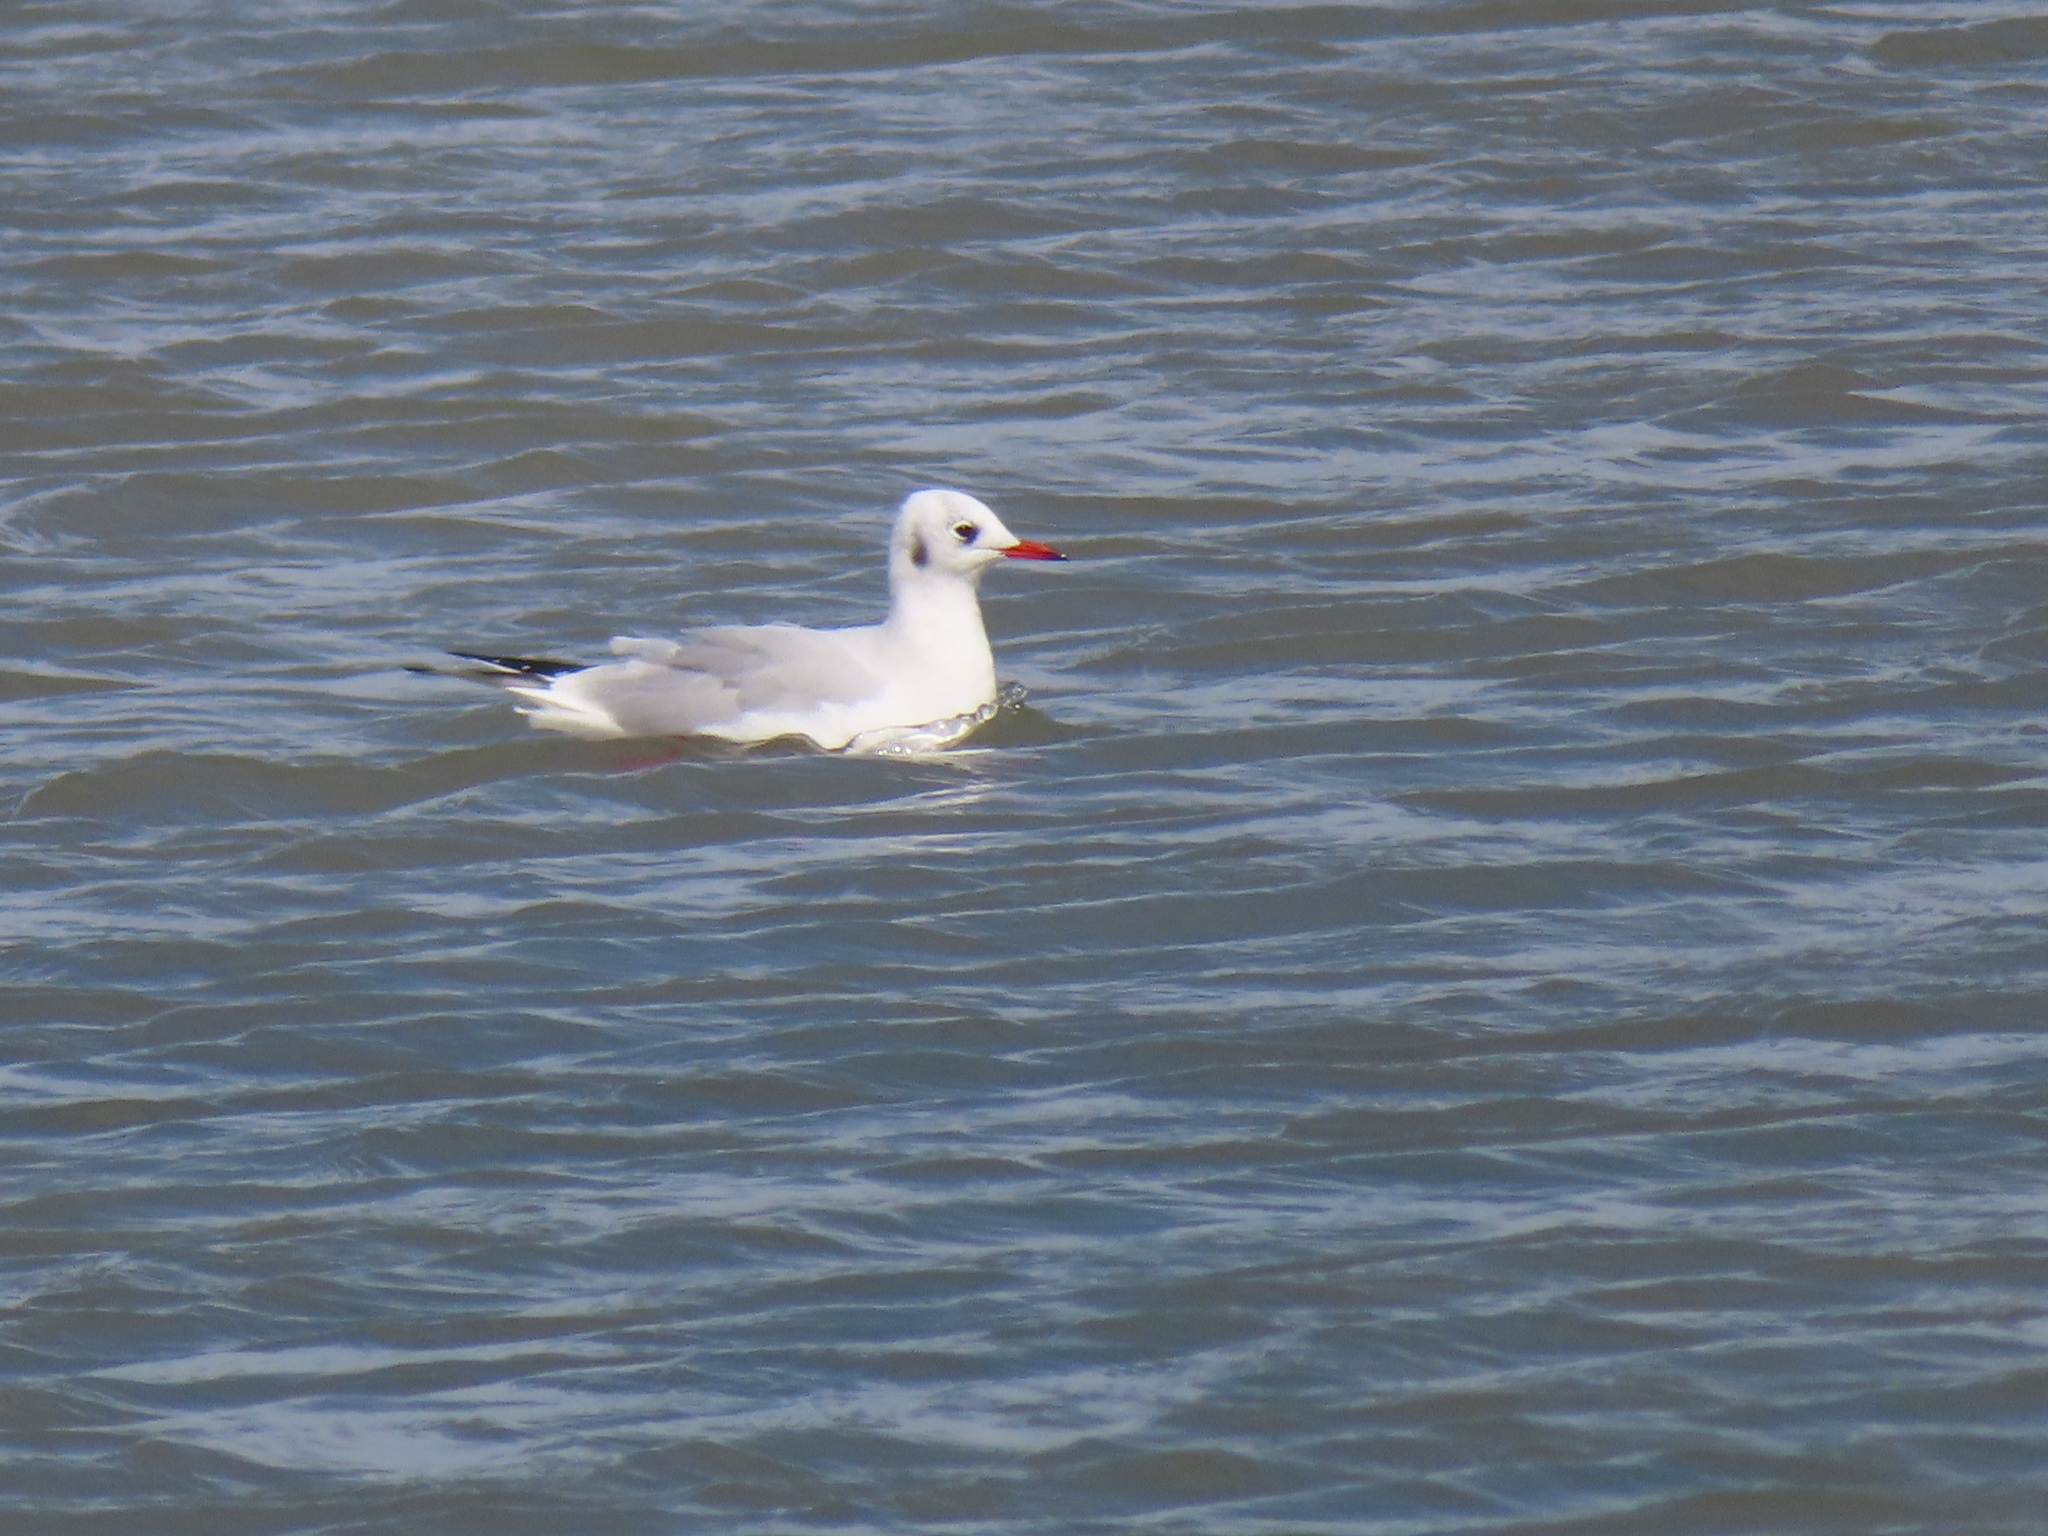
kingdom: Animalia
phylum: Chordata
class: Aves
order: Charadriiformes
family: Laridae
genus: Chroicocephalus
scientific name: Chroicocephalus ridibundus
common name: Black-headed gull
